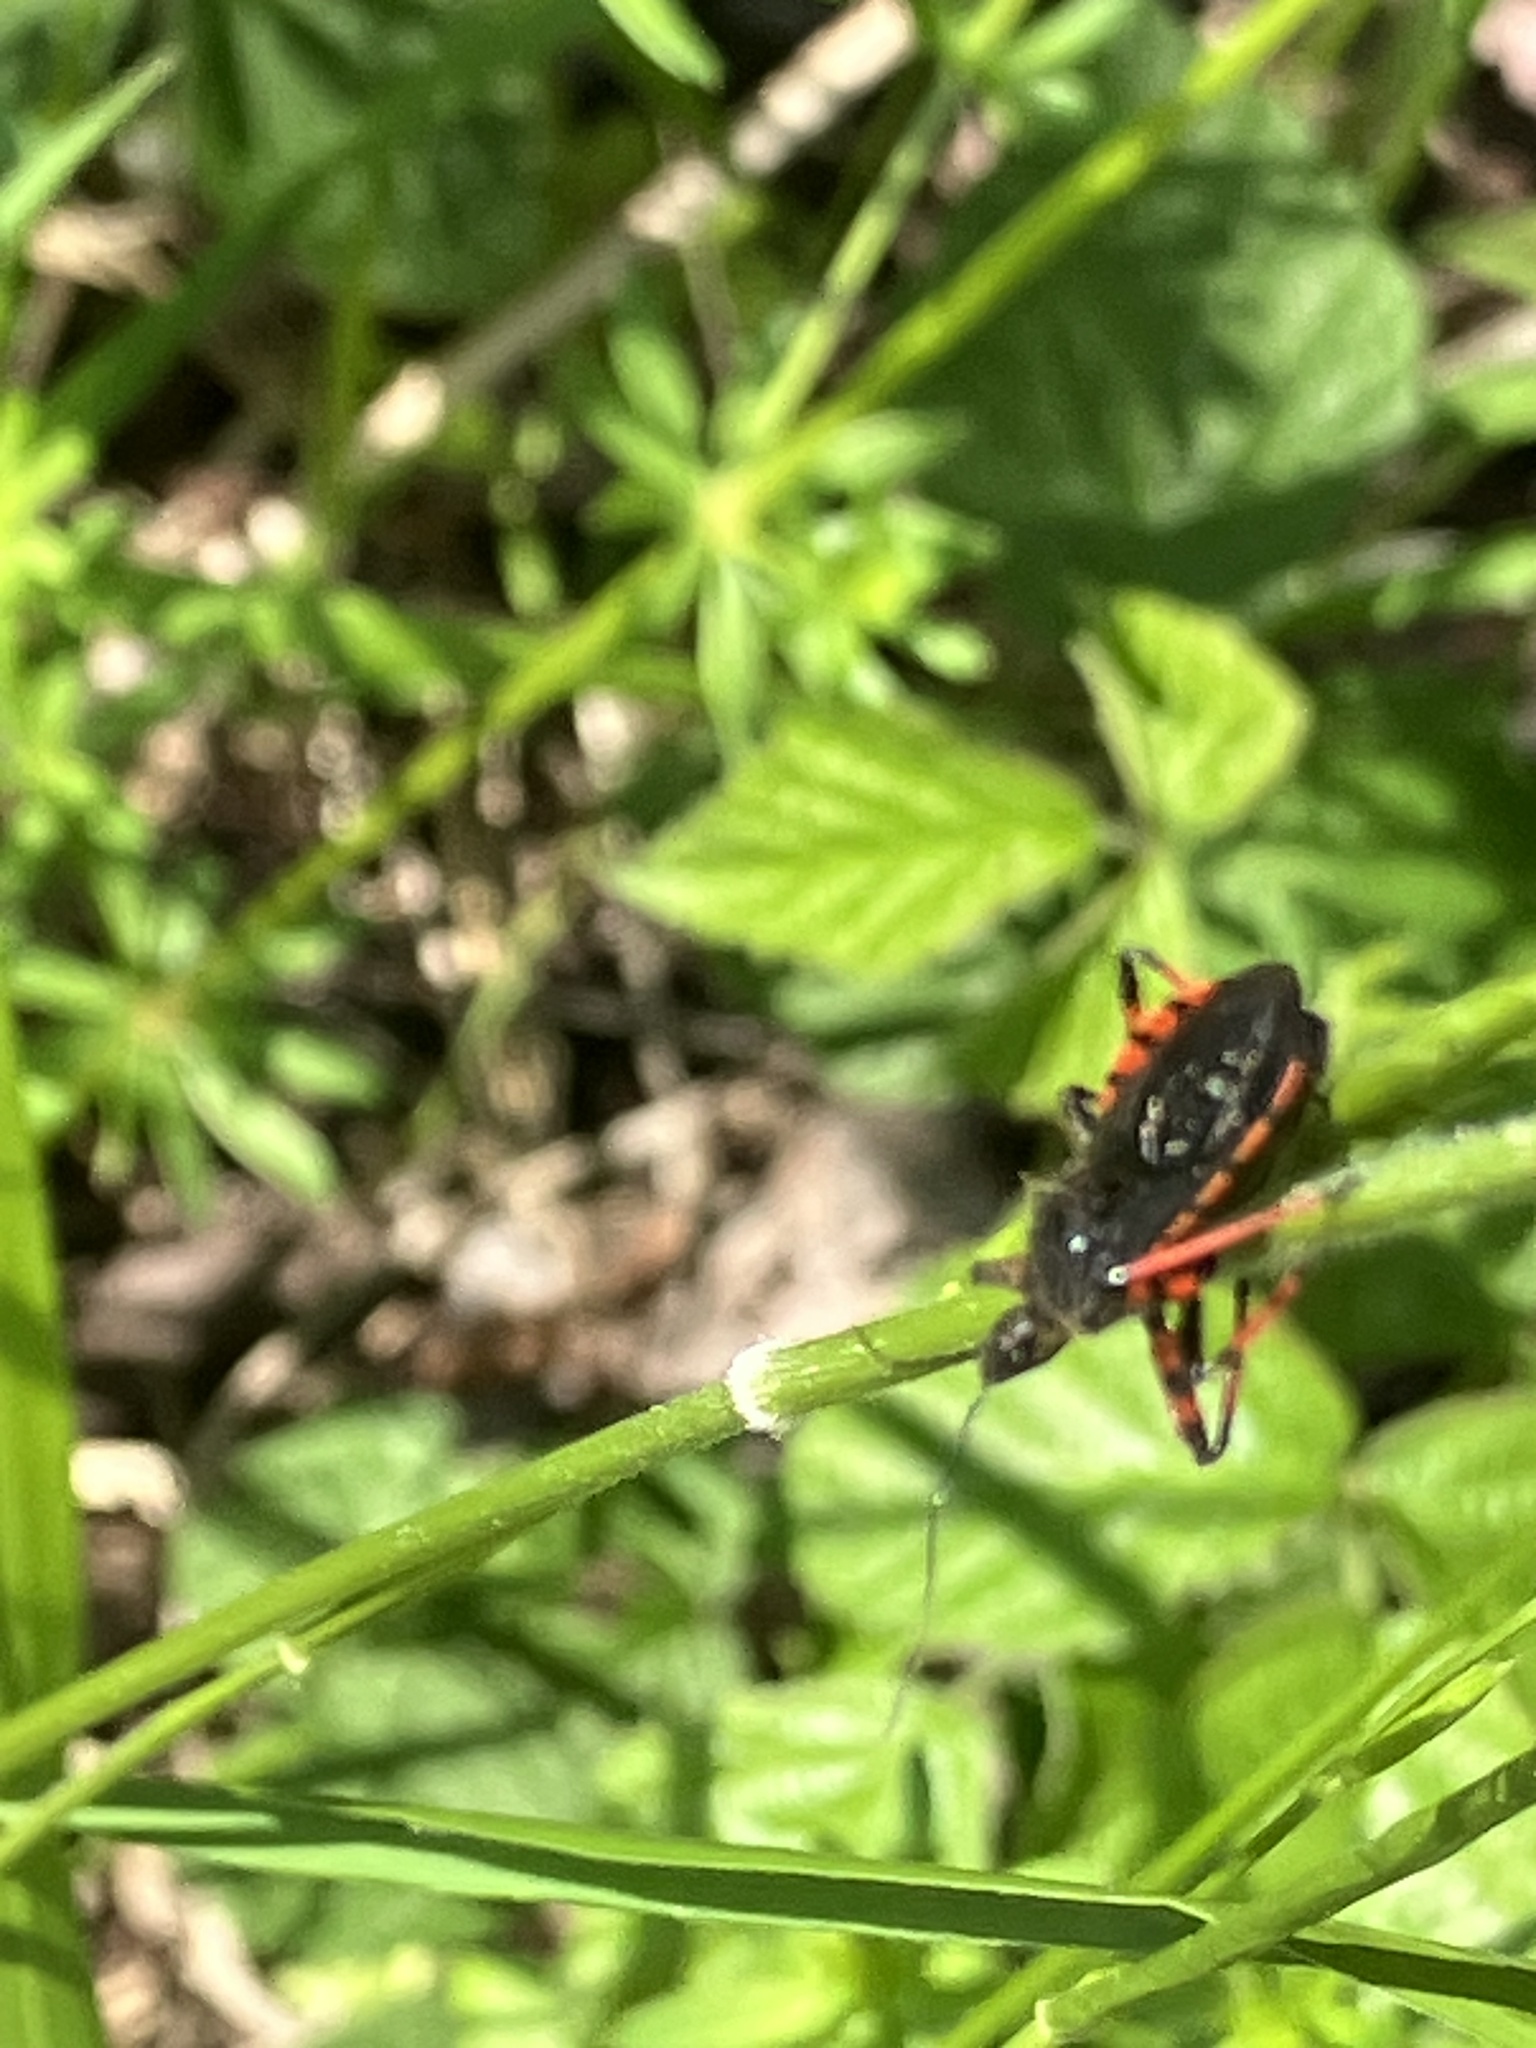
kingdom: Animalia
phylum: Arthropoda
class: Insecta
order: Hemiptera
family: Reduviidae
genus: Rhynocoris
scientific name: Rhynocoris annulatus
